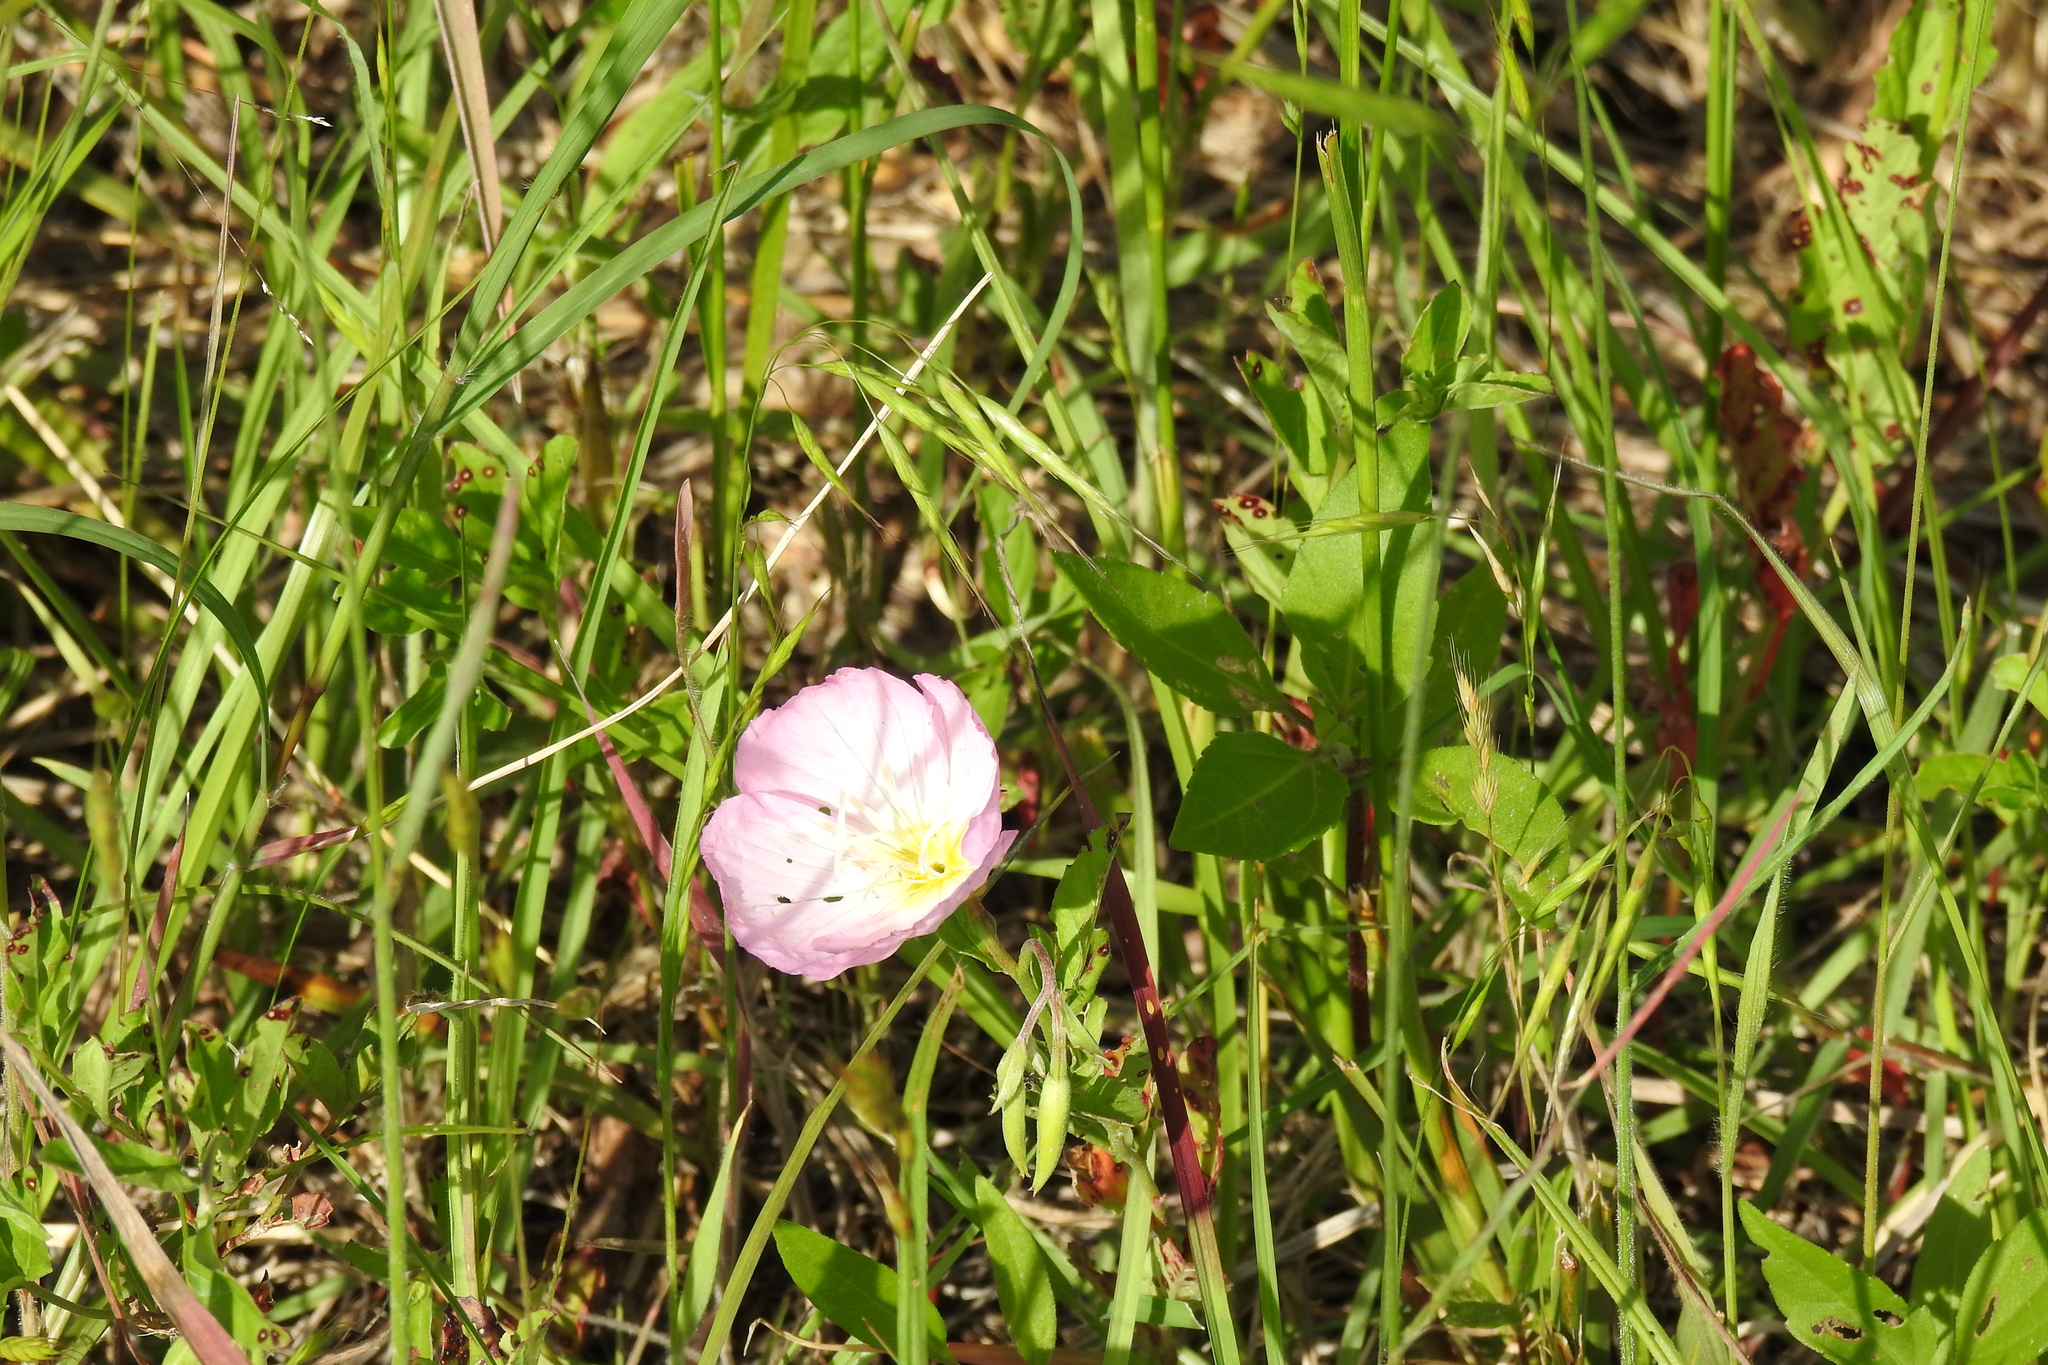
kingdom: Plantae
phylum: Tracheophyta
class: Magnoliopsida
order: Myrtales
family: Onagraceae
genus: Oenothera
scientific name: Oenothera speciosa
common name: White evening-primrose
